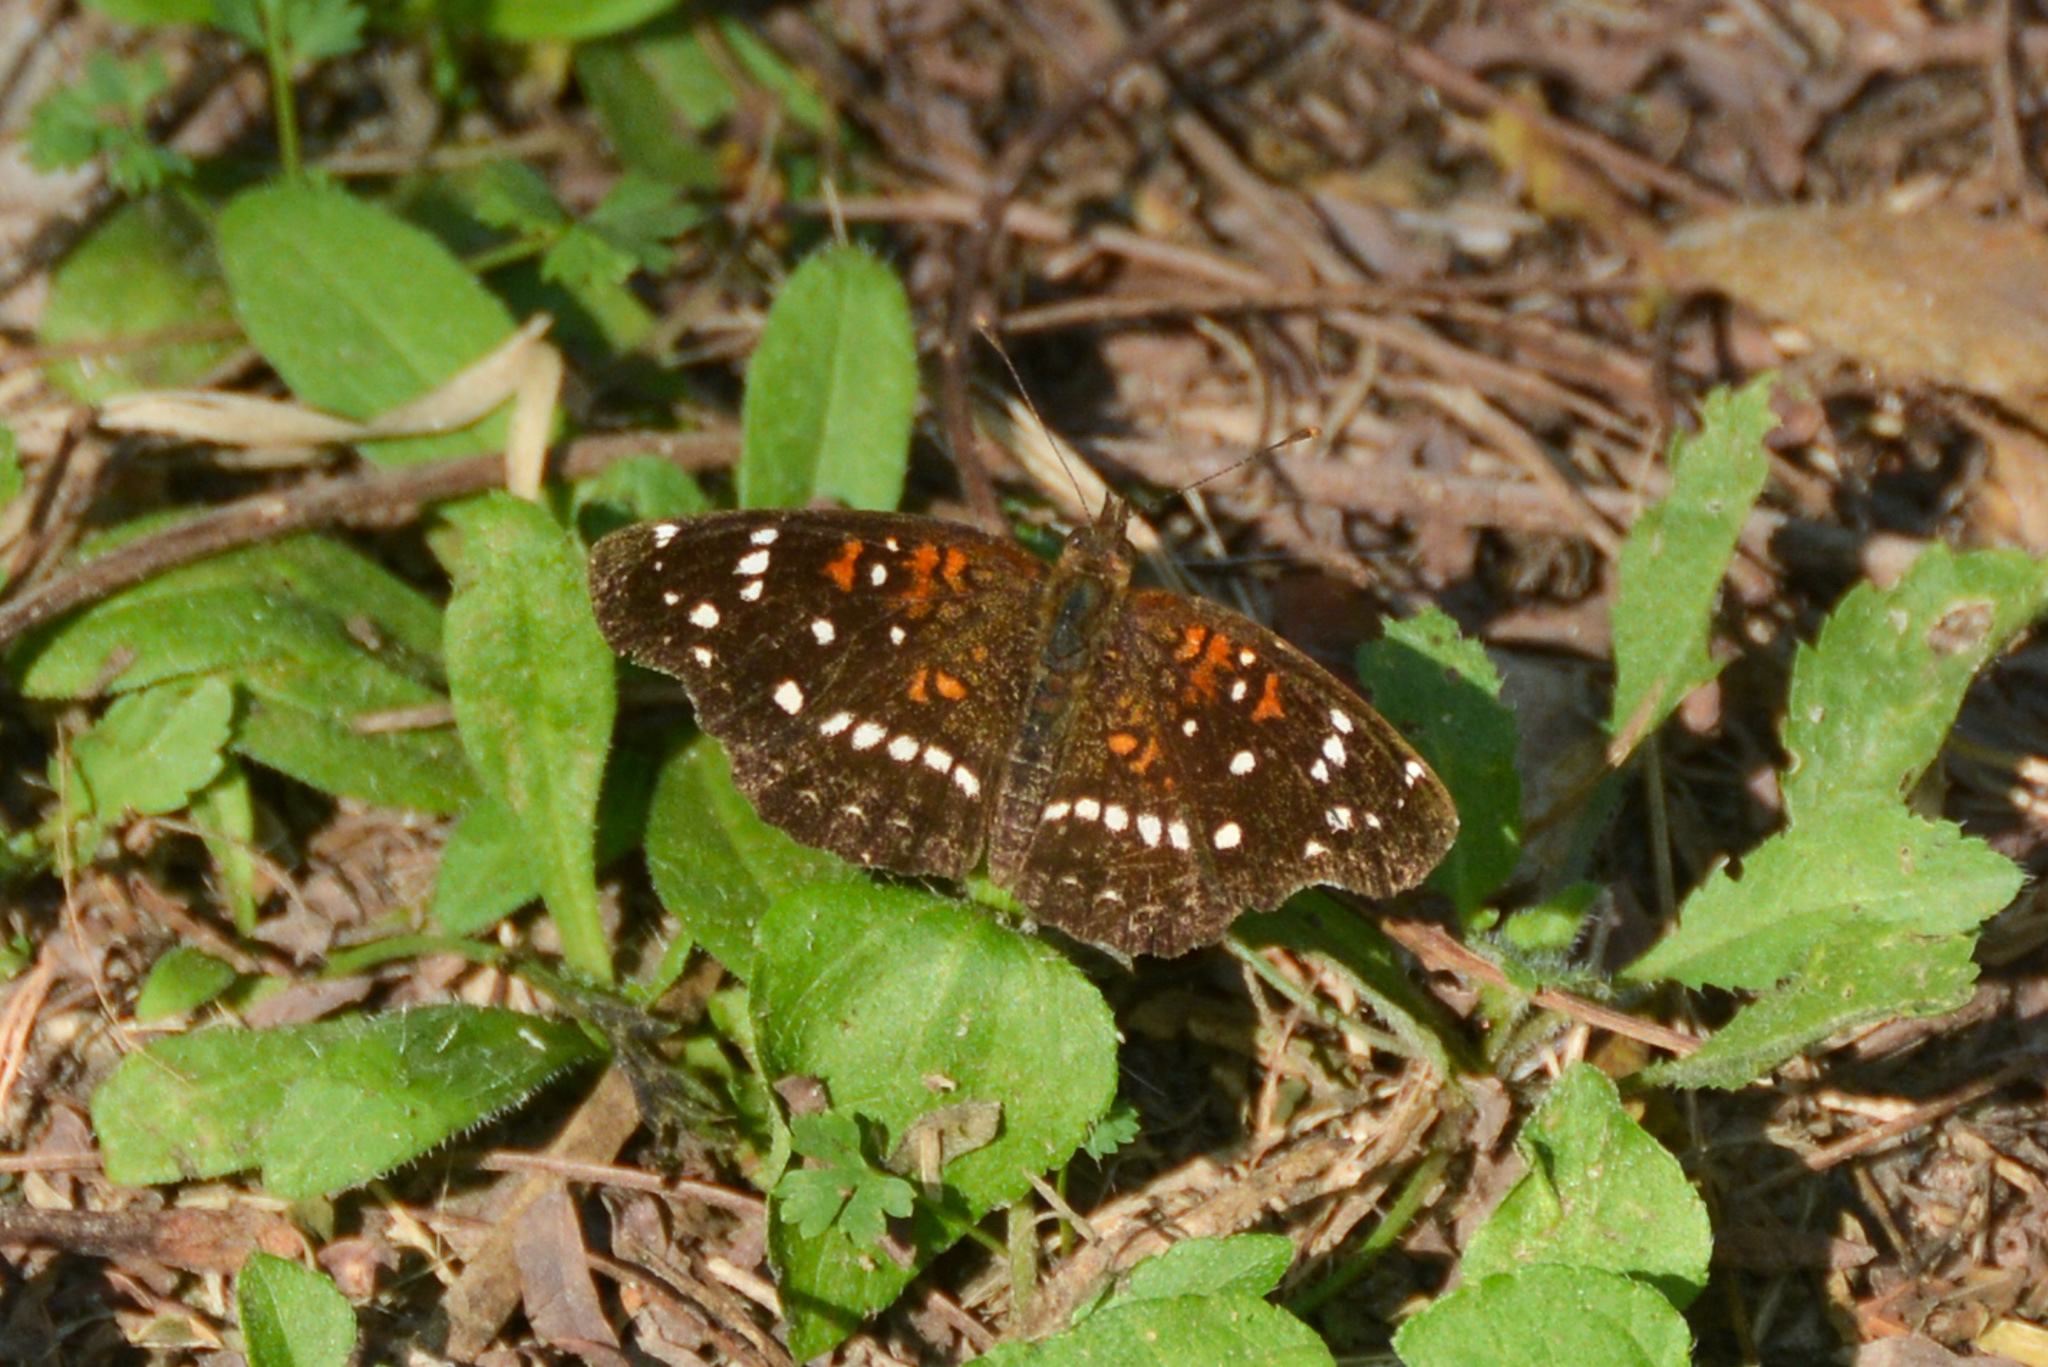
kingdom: Animalia
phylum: Arthropoda
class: Insecta
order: Lepidoptera
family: Nymphalidae
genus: Anthanassa
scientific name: Anthanassa texana
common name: Texan crescent
